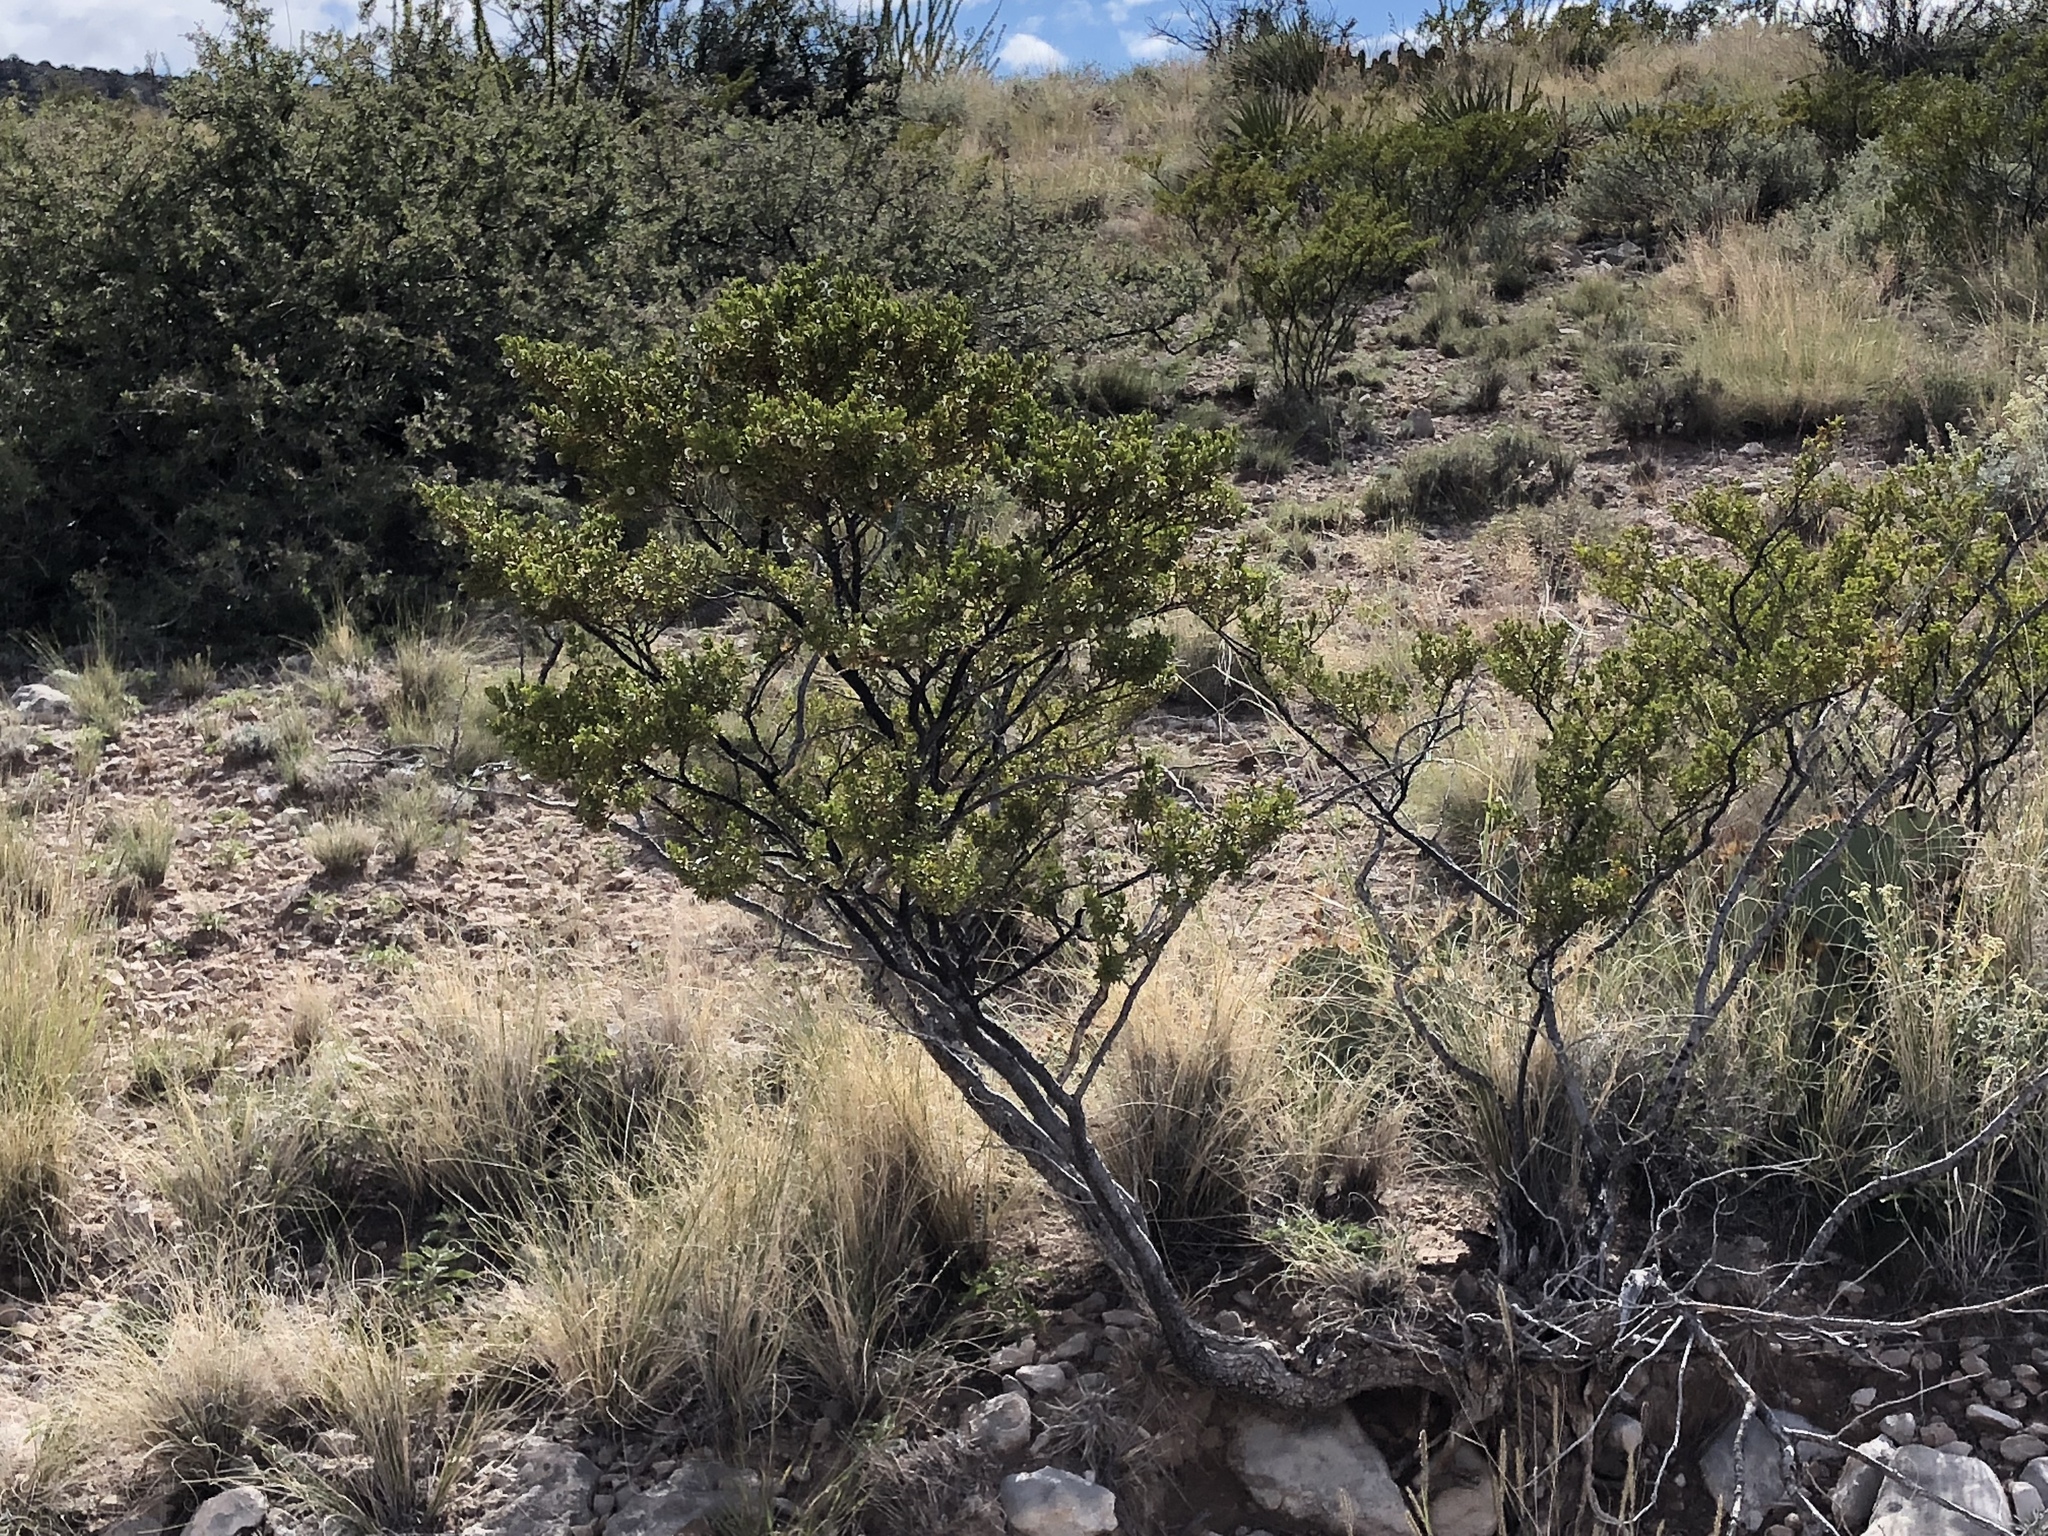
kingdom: Plantae
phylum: Tracheophyta
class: Magnoliopsida
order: Zygophyllales
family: Zygophyllaceae
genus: Larrea
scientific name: Larrea tridentata
